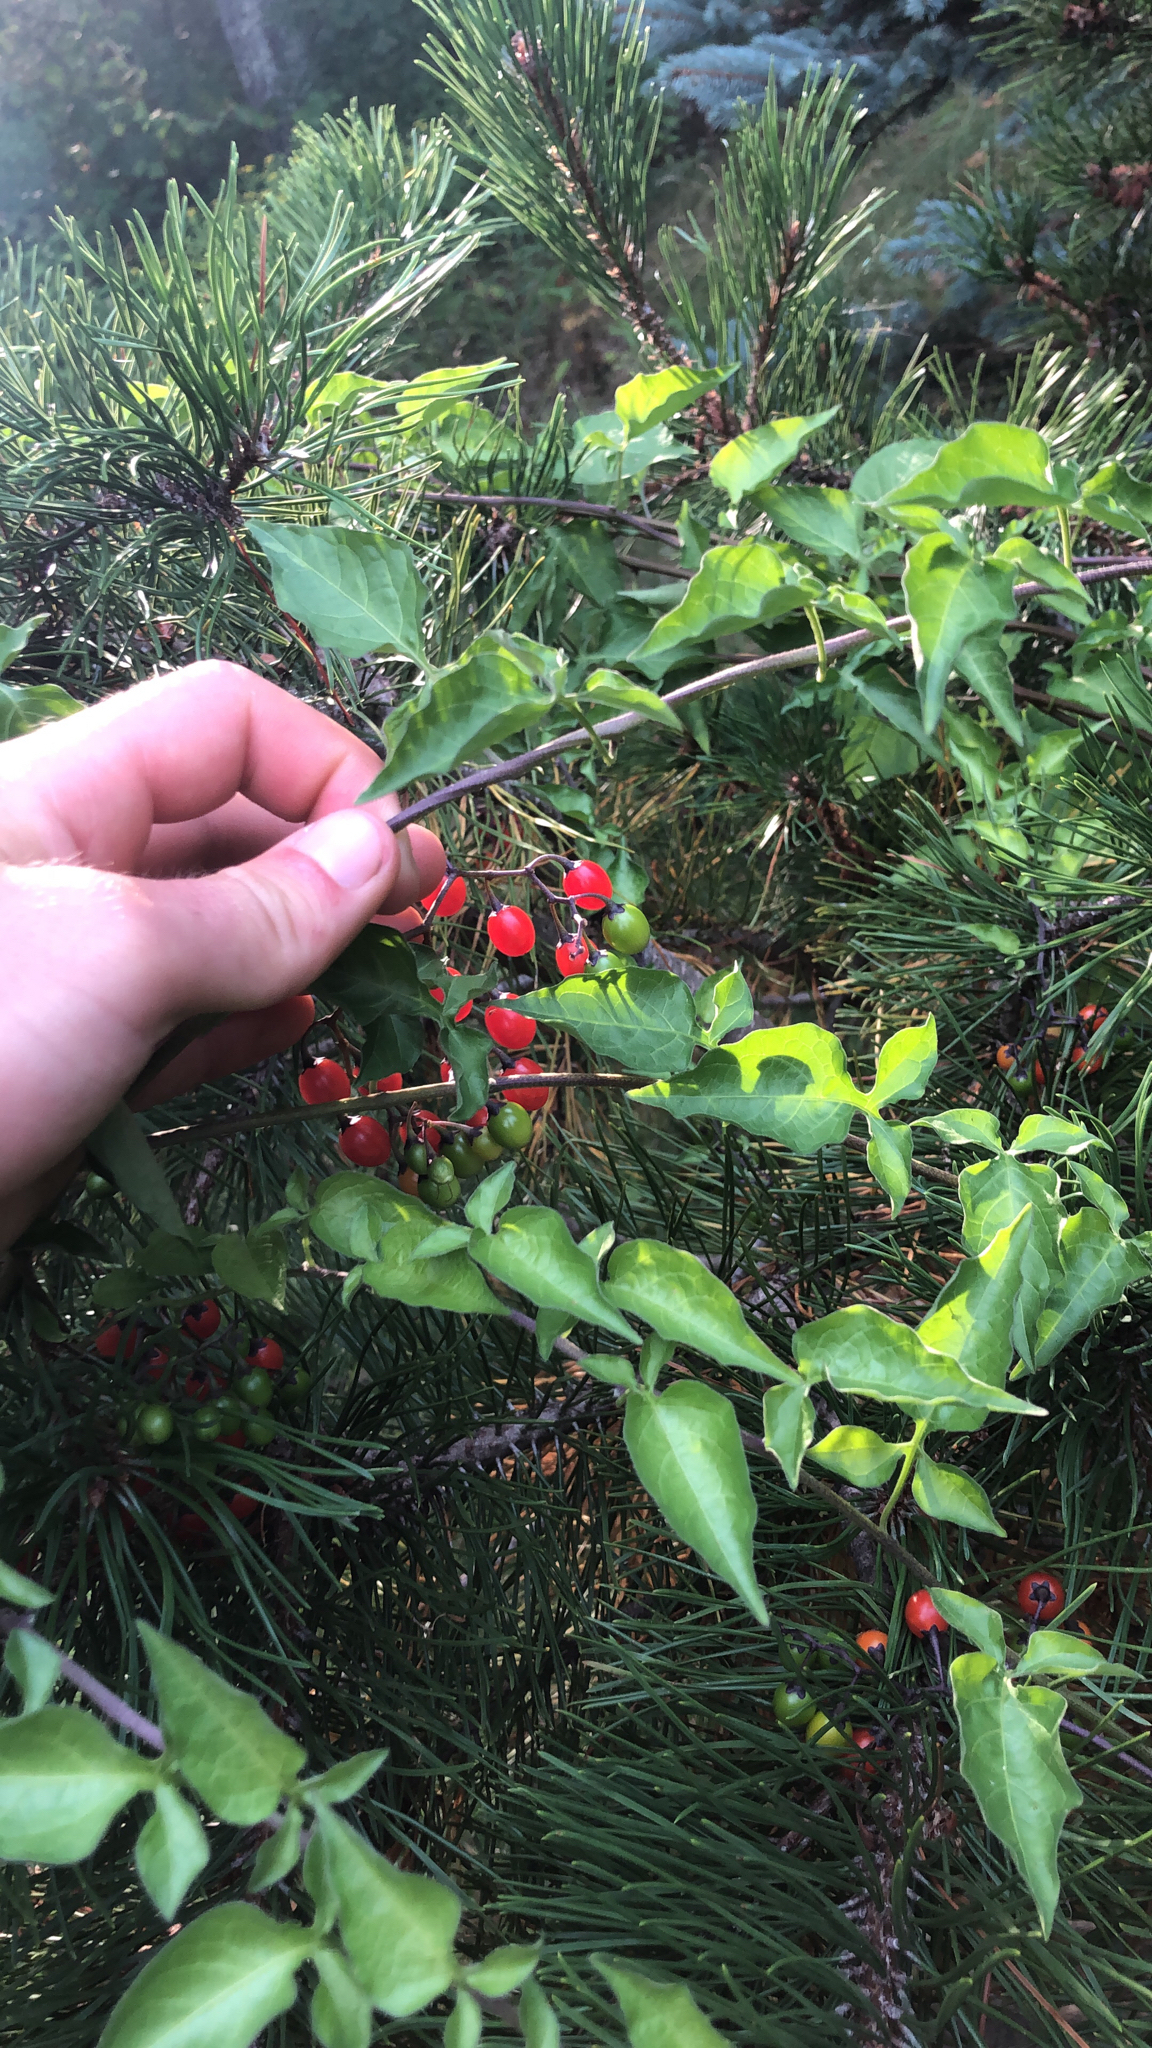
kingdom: Plantae
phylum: Tracheophyta
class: Magnoliopsida
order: Solanales
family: Solanaceae
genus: Solanum
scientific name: Solanum dulcamara
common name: Climbing nightshade
